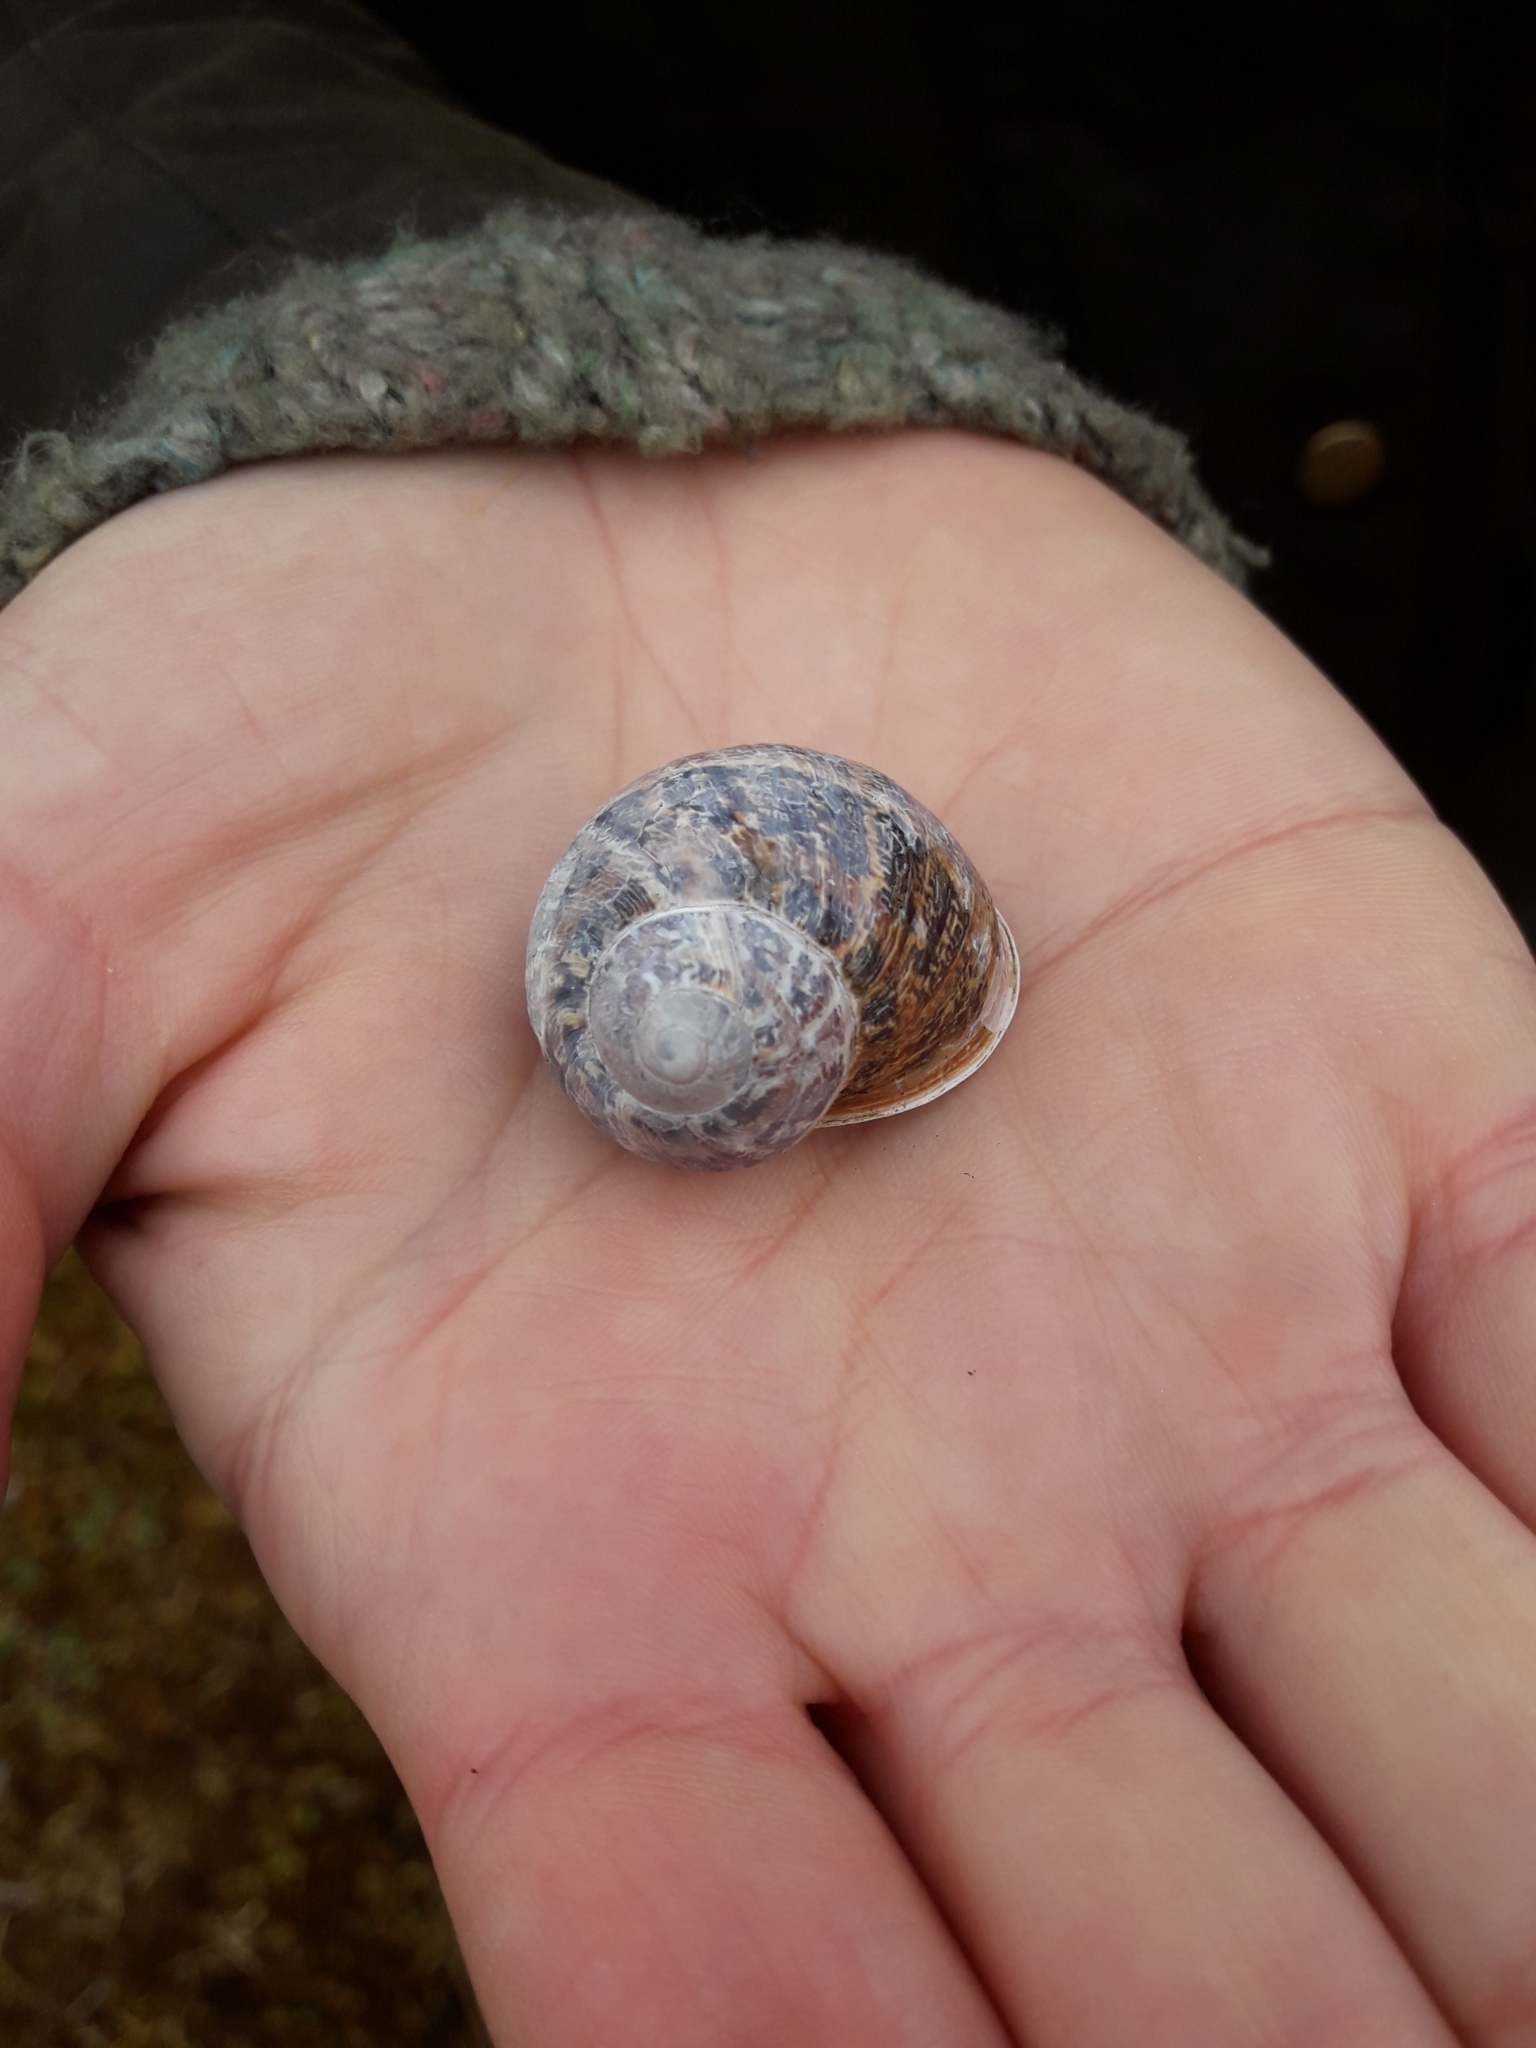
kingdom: Animalia
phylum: Mollusca
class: Gastropoda
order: Stylommatophora
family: Helicidae
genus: Cornu
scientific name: Cornu aspersum
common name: Brown garden snail
